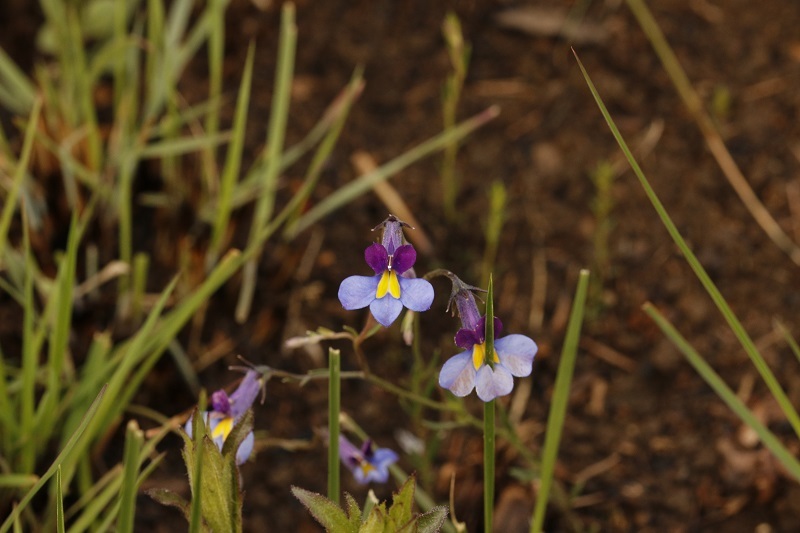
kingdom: Plantae
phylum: Tracheophyta
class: Magnoliopsida
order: Asterales
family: Campanulaceae
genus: Monopsis
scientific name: Monopsis decipiens
